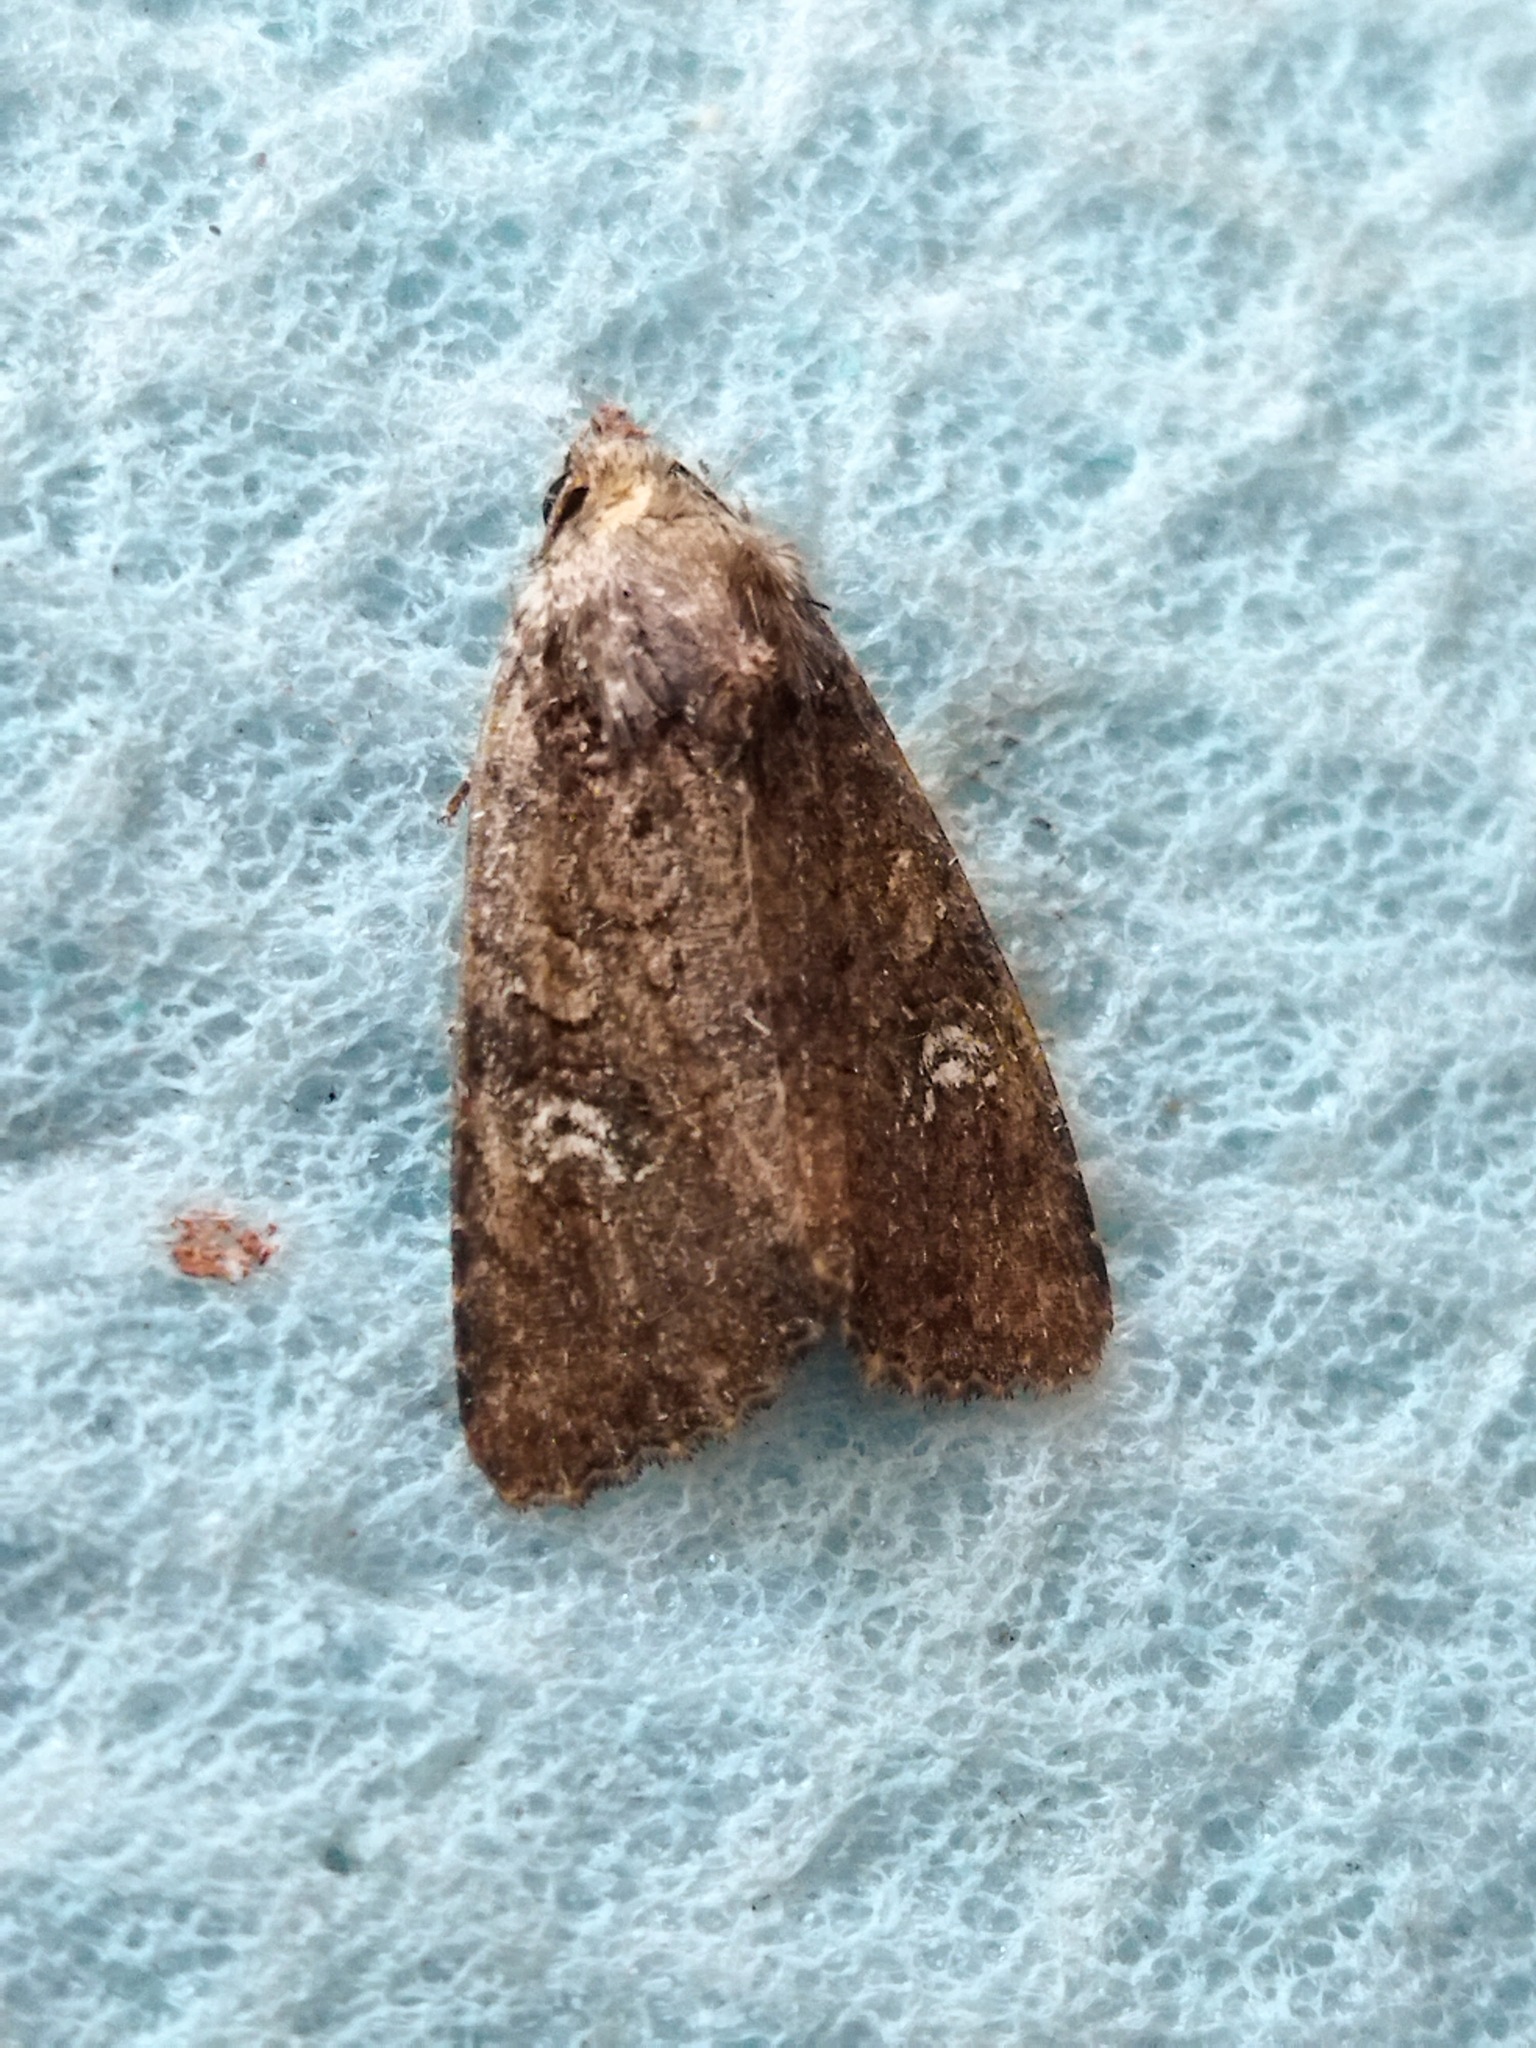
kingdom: Animalia
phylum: Arthropoda
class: Insecta
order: Lepidoptera
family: Noctuidae
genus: Mesapamea
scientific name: Mesapamea
